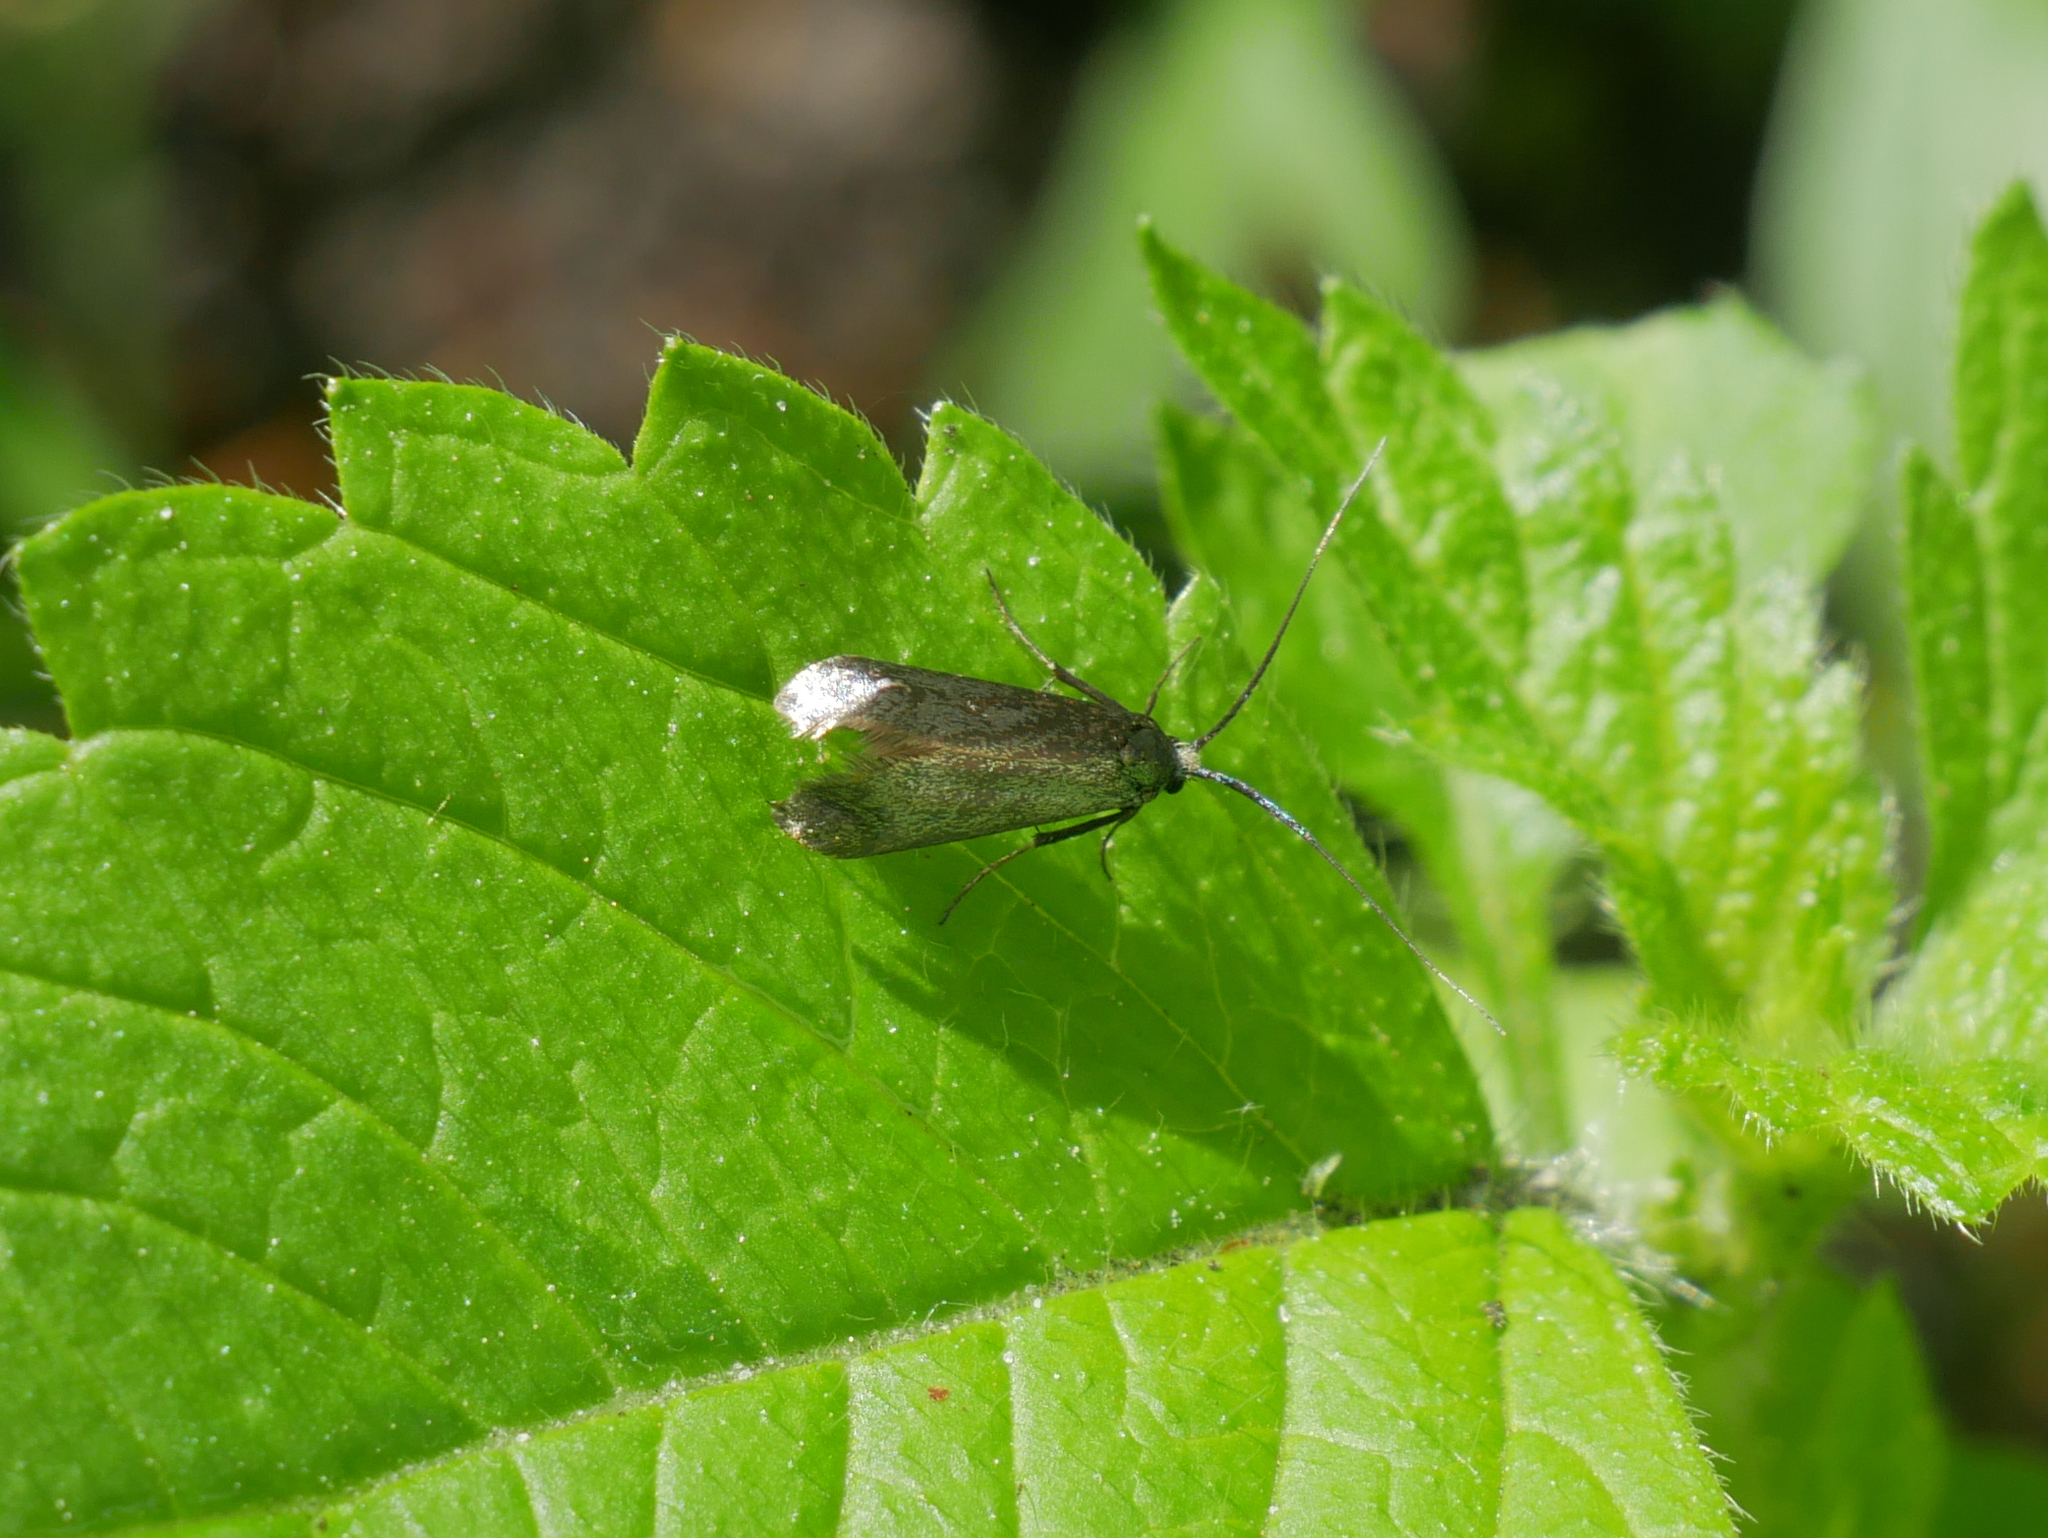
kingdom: Animalia
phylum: Arthropoda
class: Insecta
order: Lepidoptera
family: Adelidae
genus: Adela
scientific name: Adela viridella
